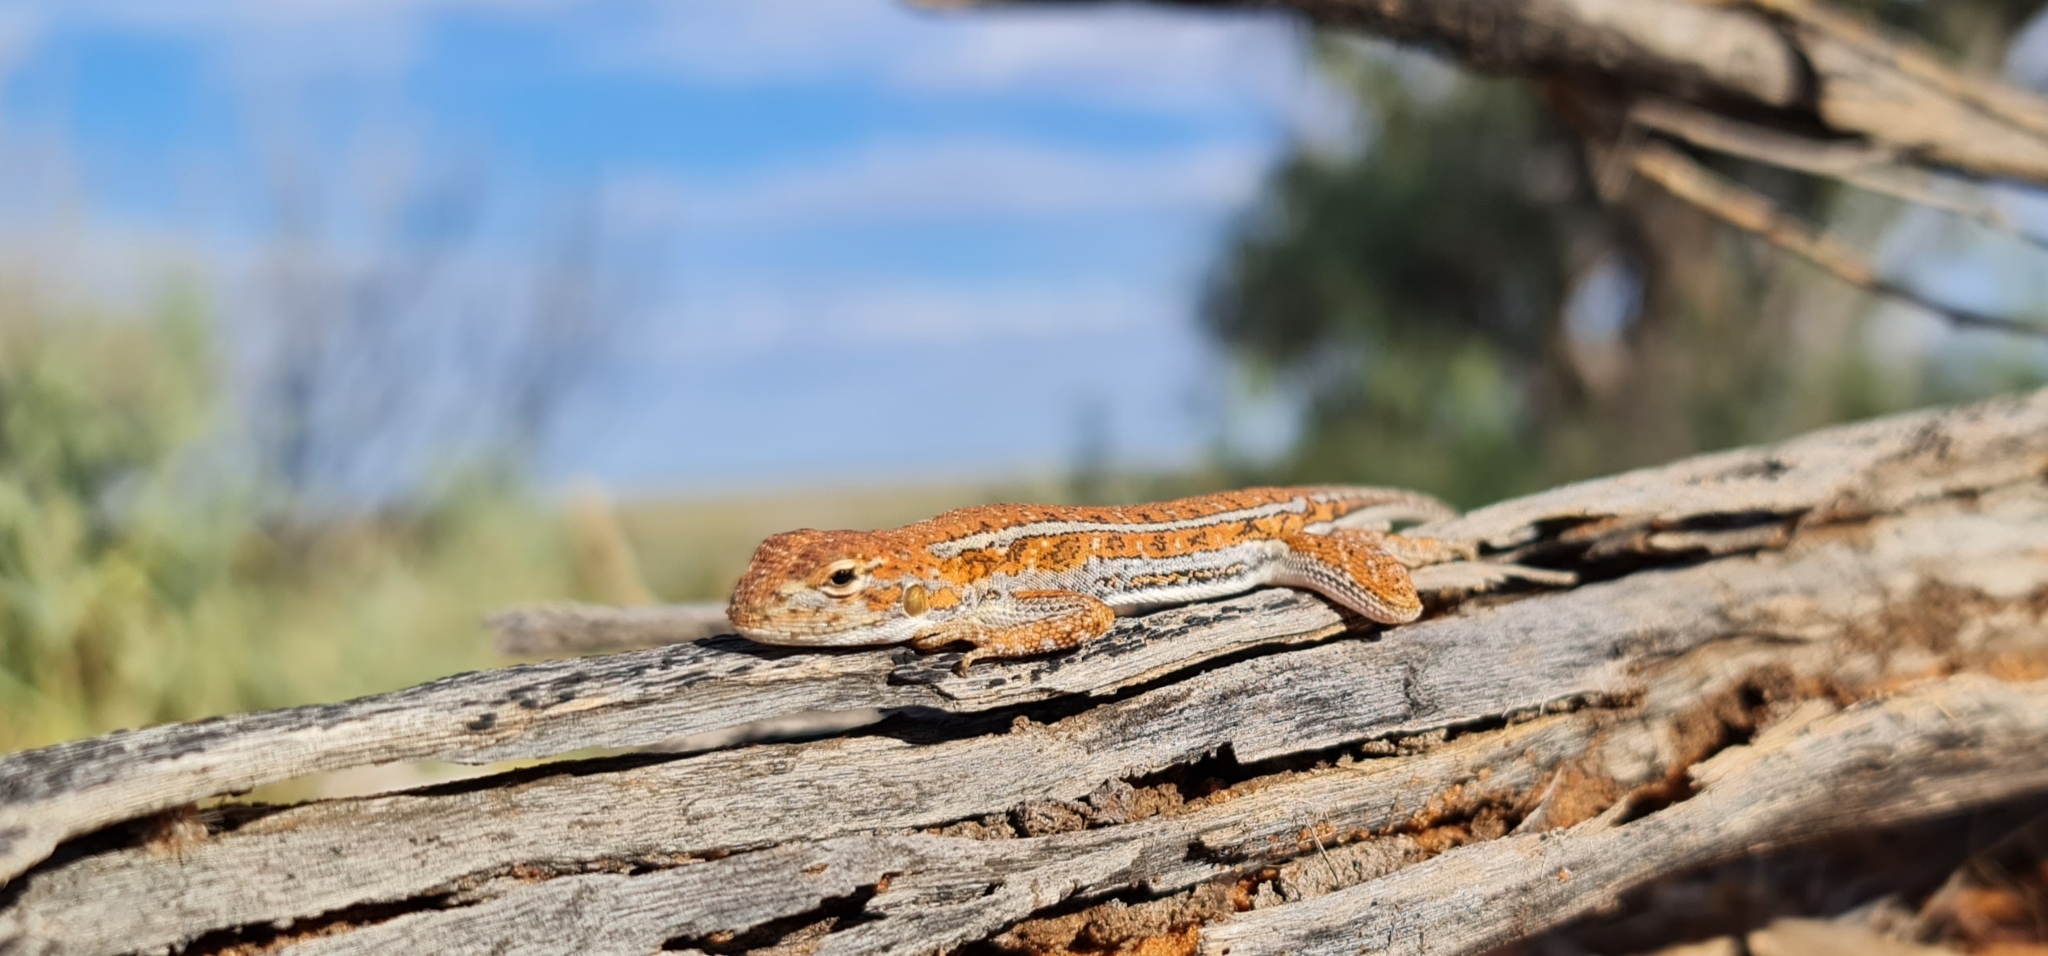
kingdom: Animalia
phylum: Chordata
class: Squamata
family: Agamidae
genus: Ctenophorus
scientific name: Ctenophorus
